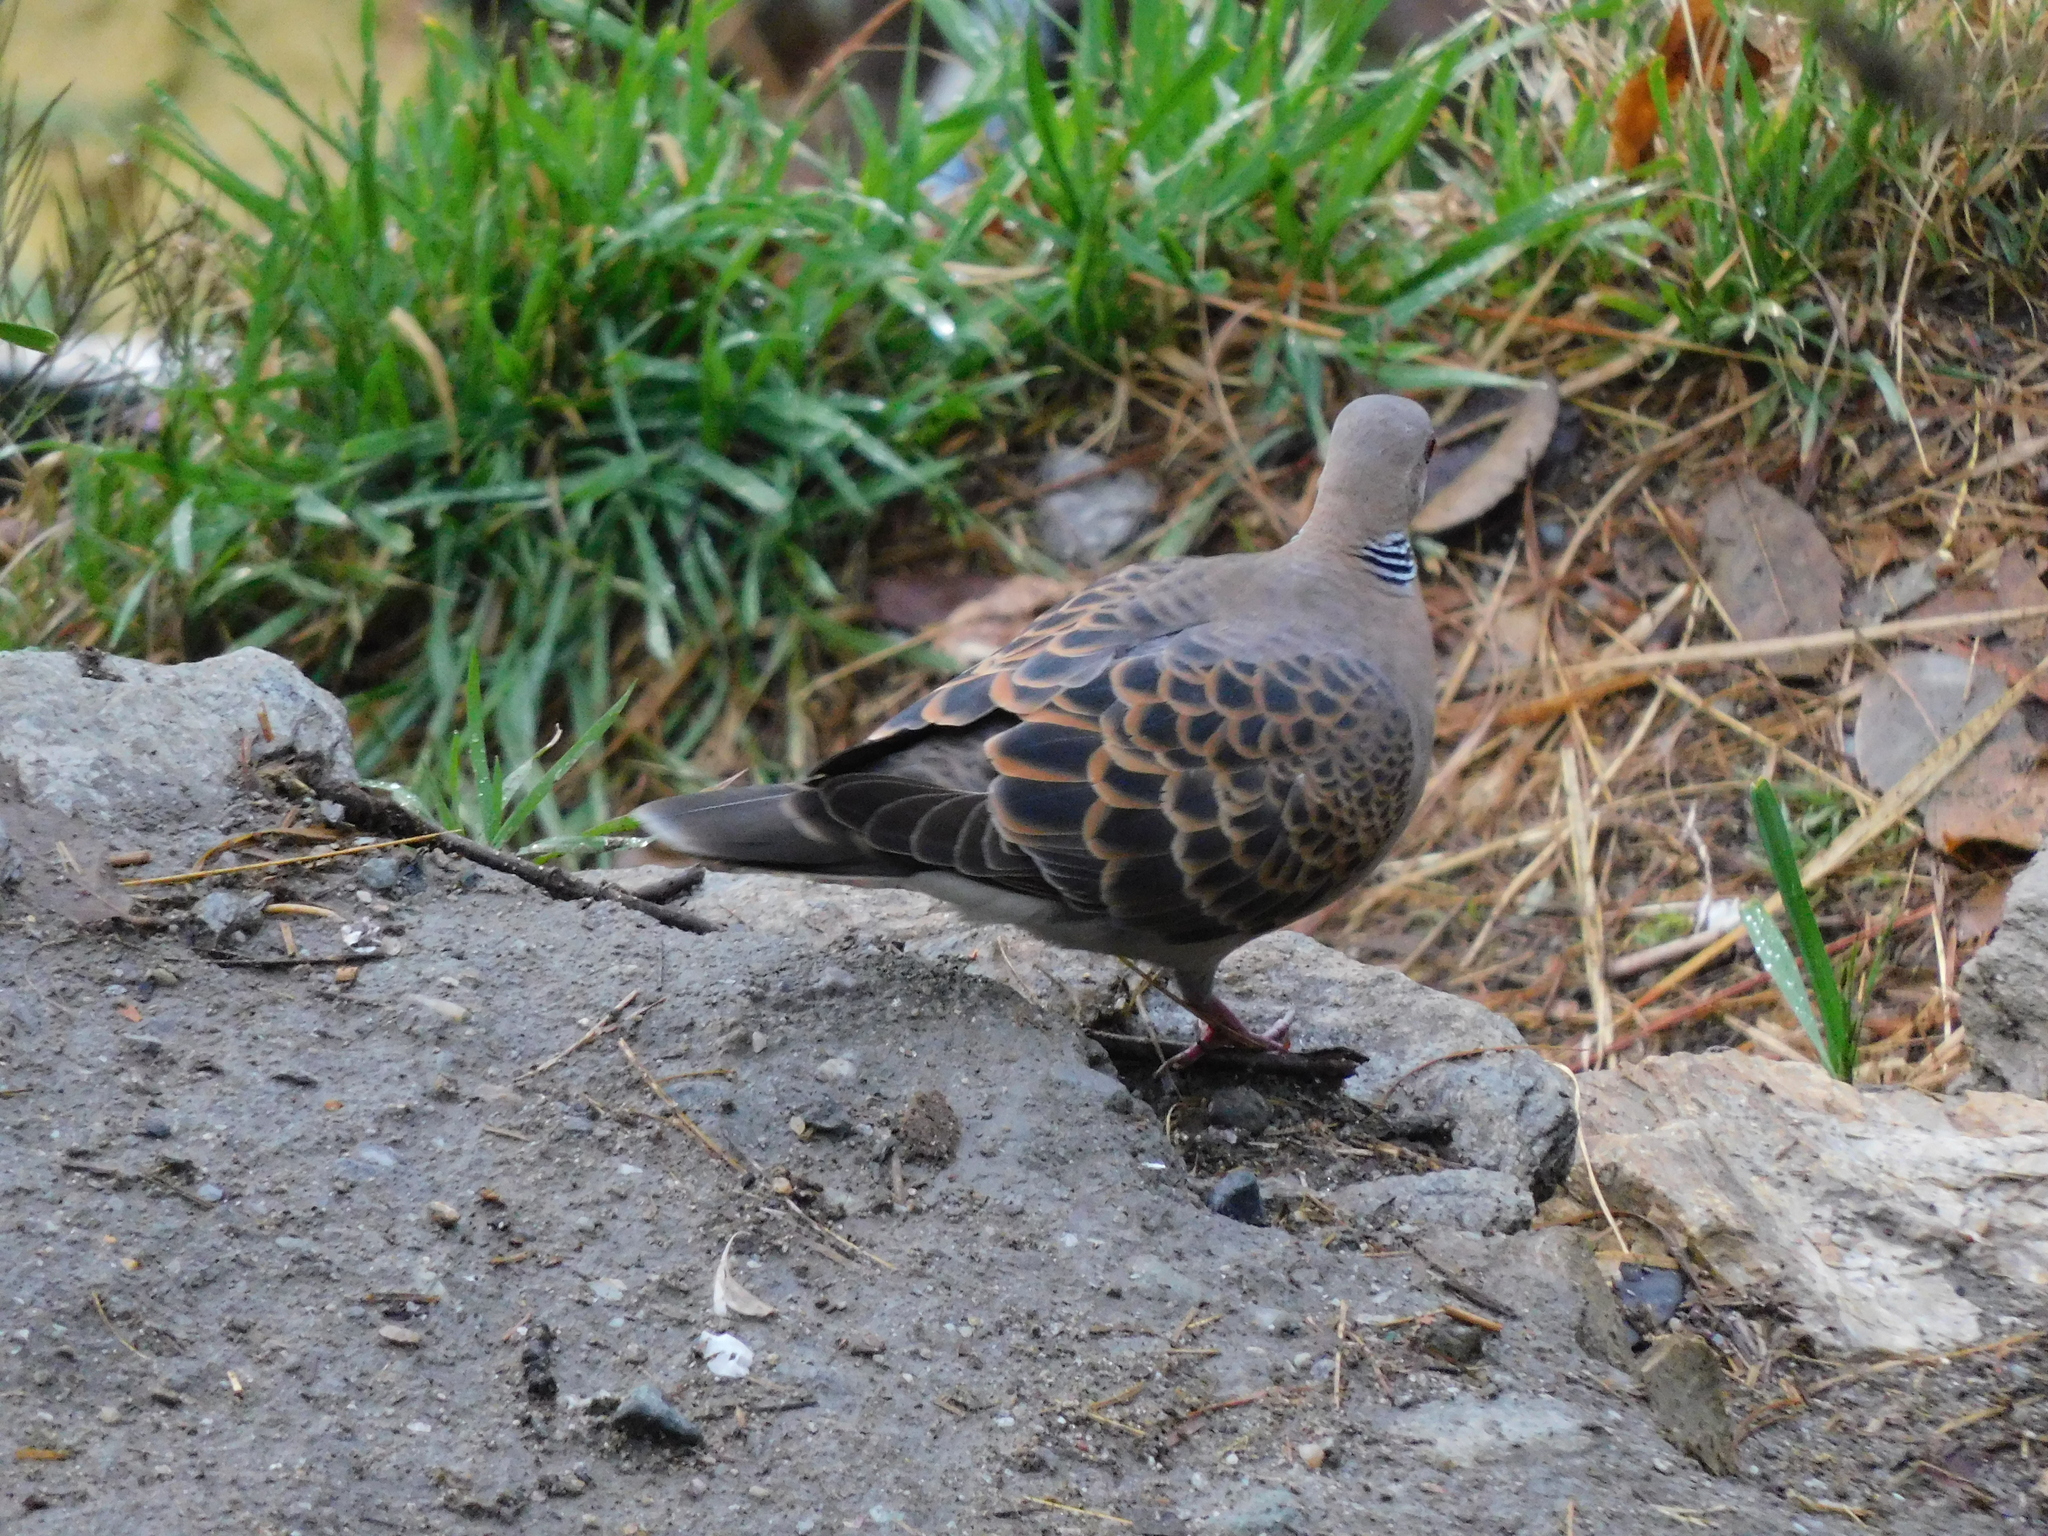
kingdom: Animalia
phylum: Chordata
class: Aves
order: Columbiformes
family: Columbidae
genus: Streptopelia
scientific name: Streptopelia orientalis
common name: Oriental turtle dove
